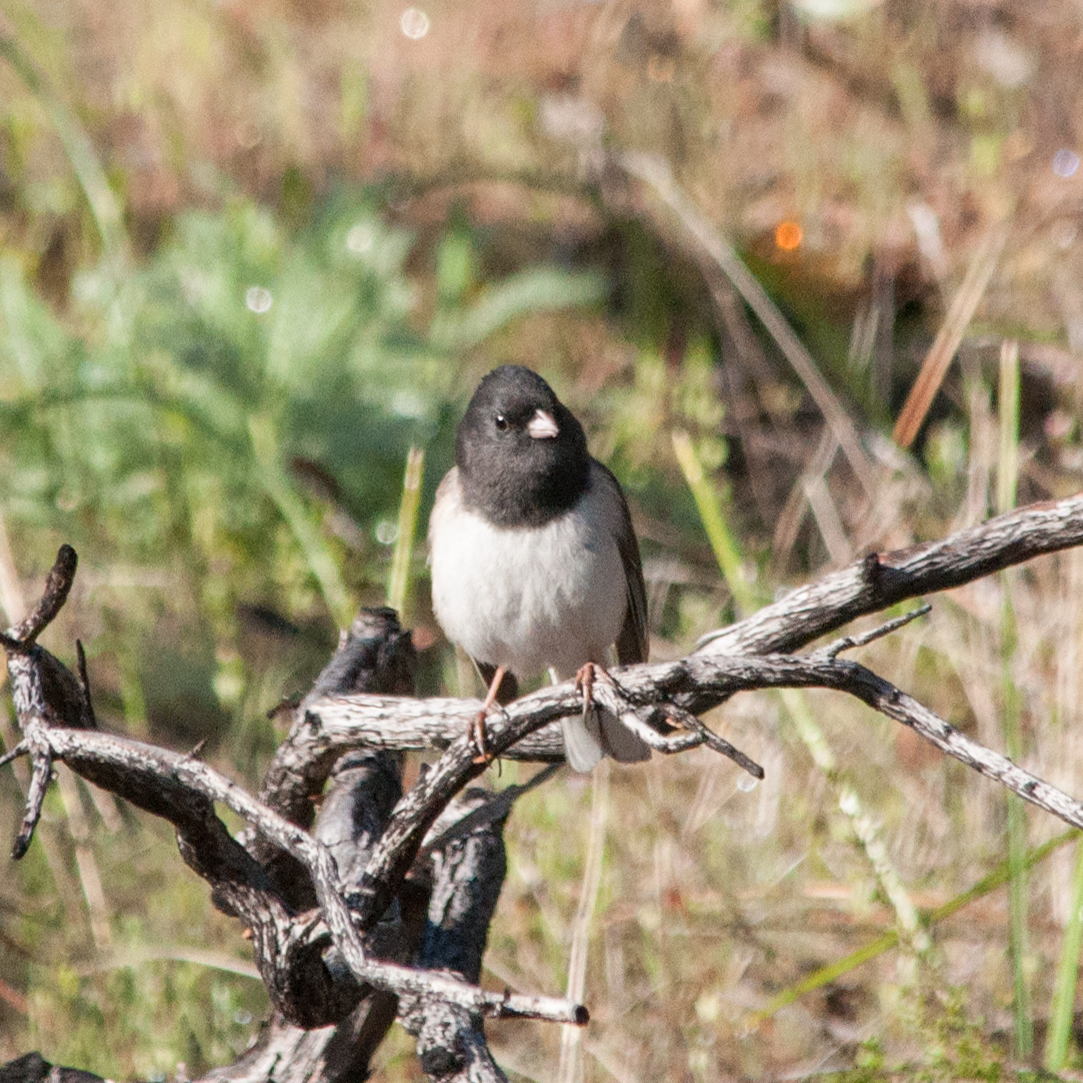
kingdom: Animalia
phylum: Chordata
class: Aves
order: Passeriformes
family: Passerellidae
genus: Junco
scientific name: Junco hyemalis
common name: Dark-eyed junco
